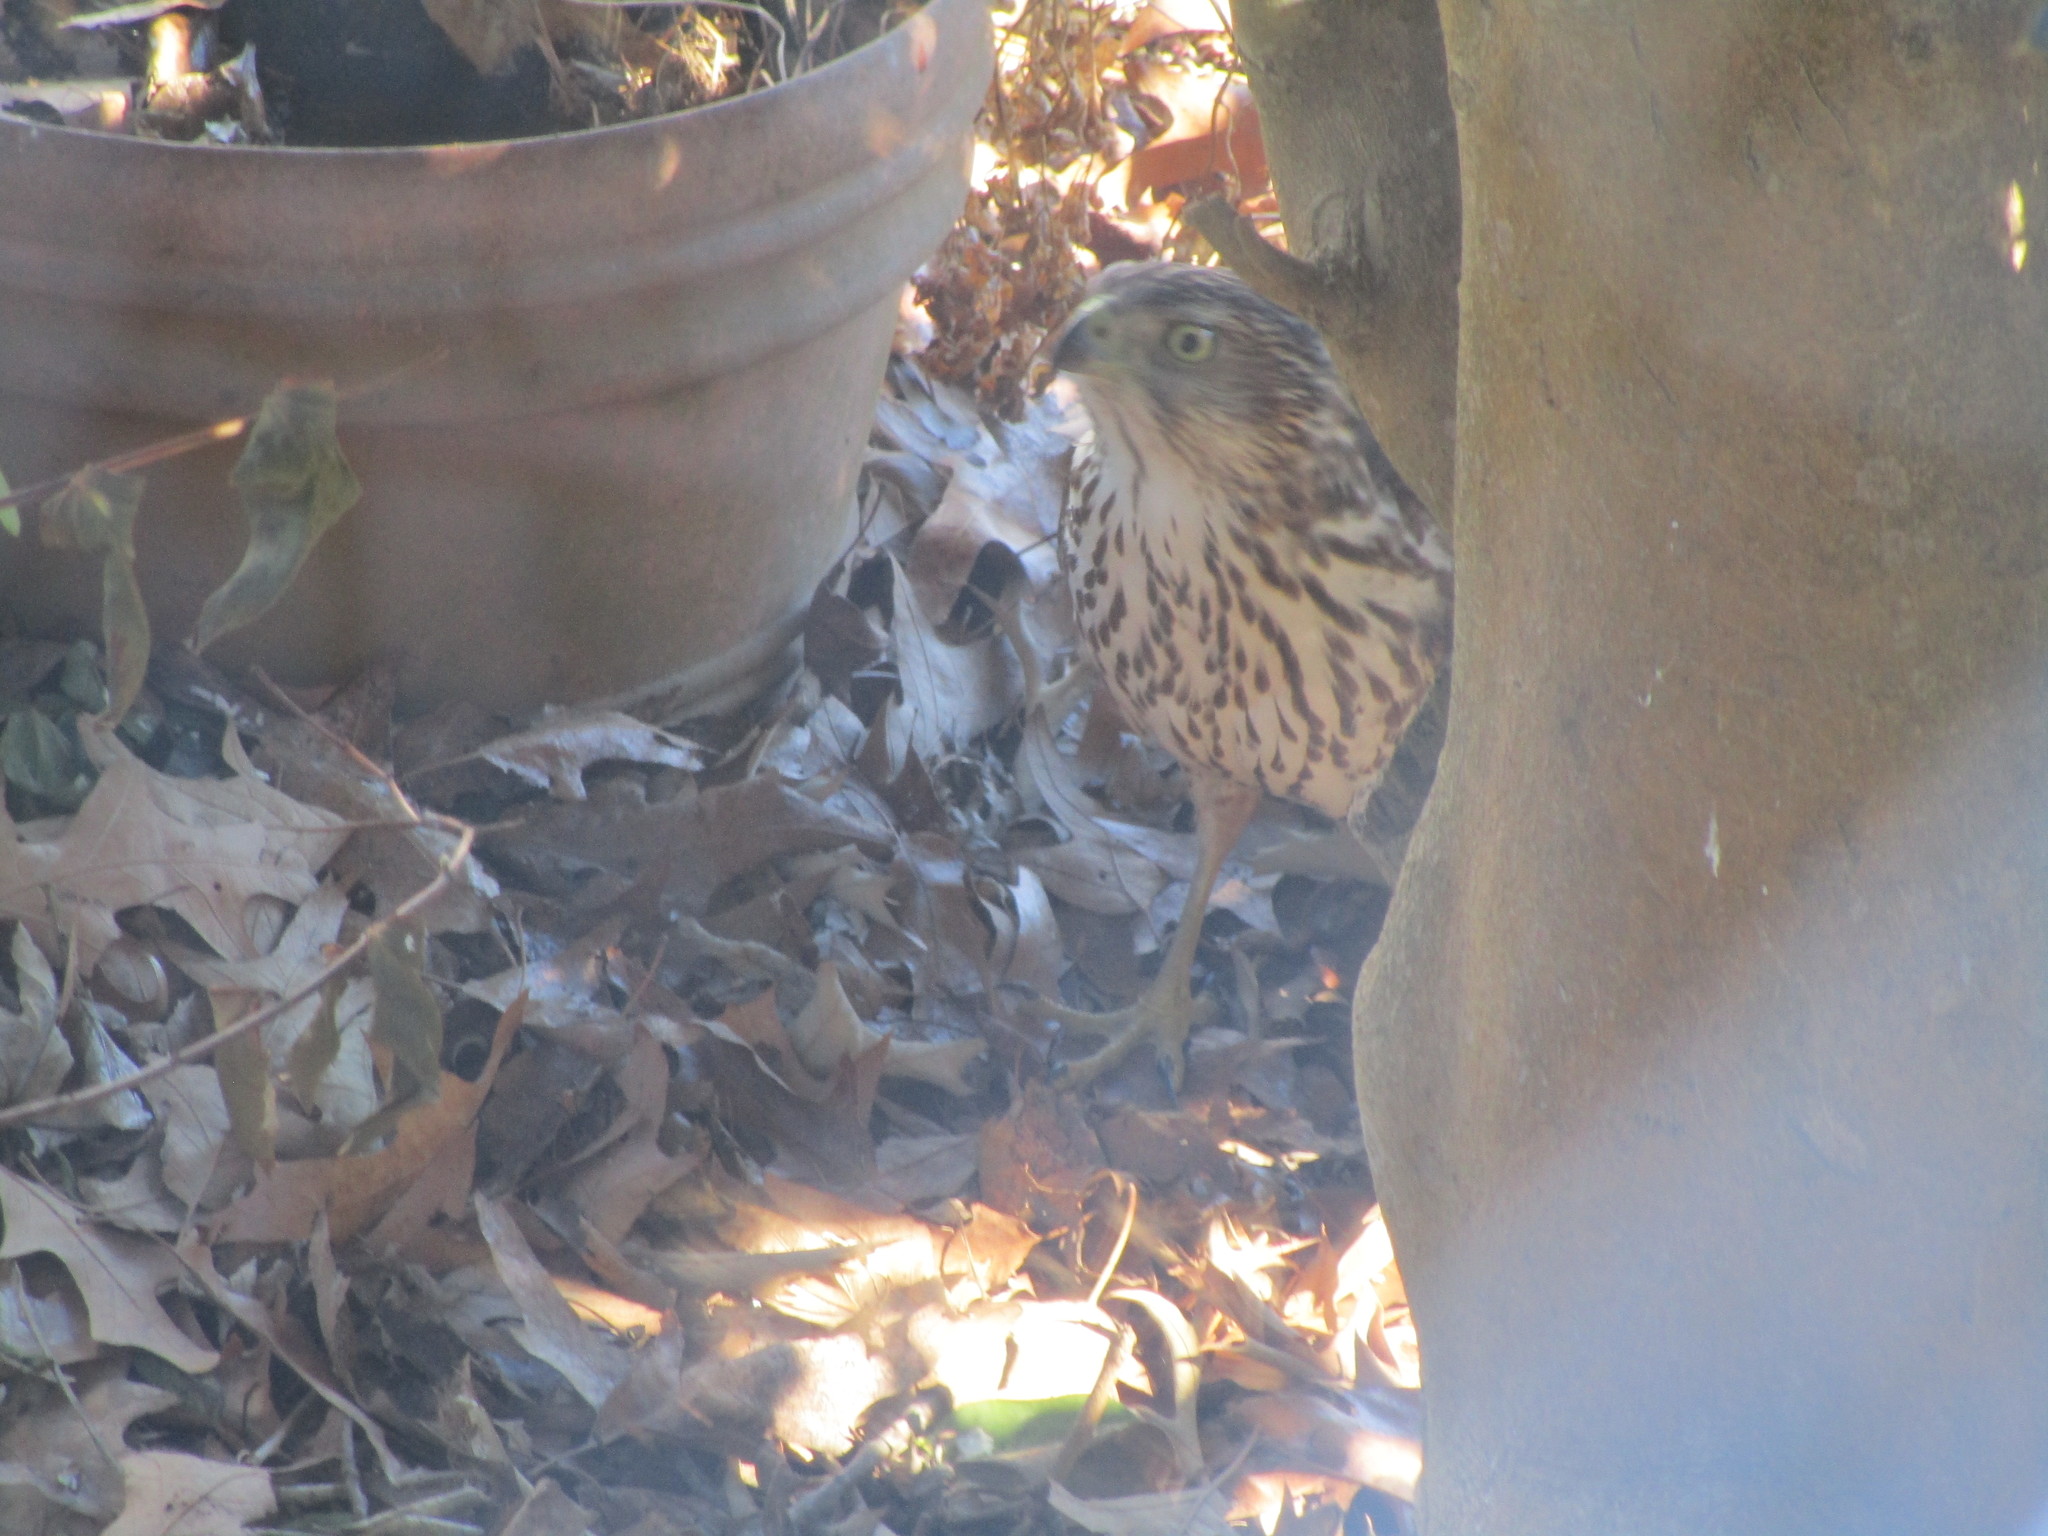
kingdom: Animalia
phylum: Chordata
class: Aves
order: Accipitriformes
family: Accipitridae
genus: Accipiter
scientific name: Accipiter cooperii
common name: Cooper's hawk
